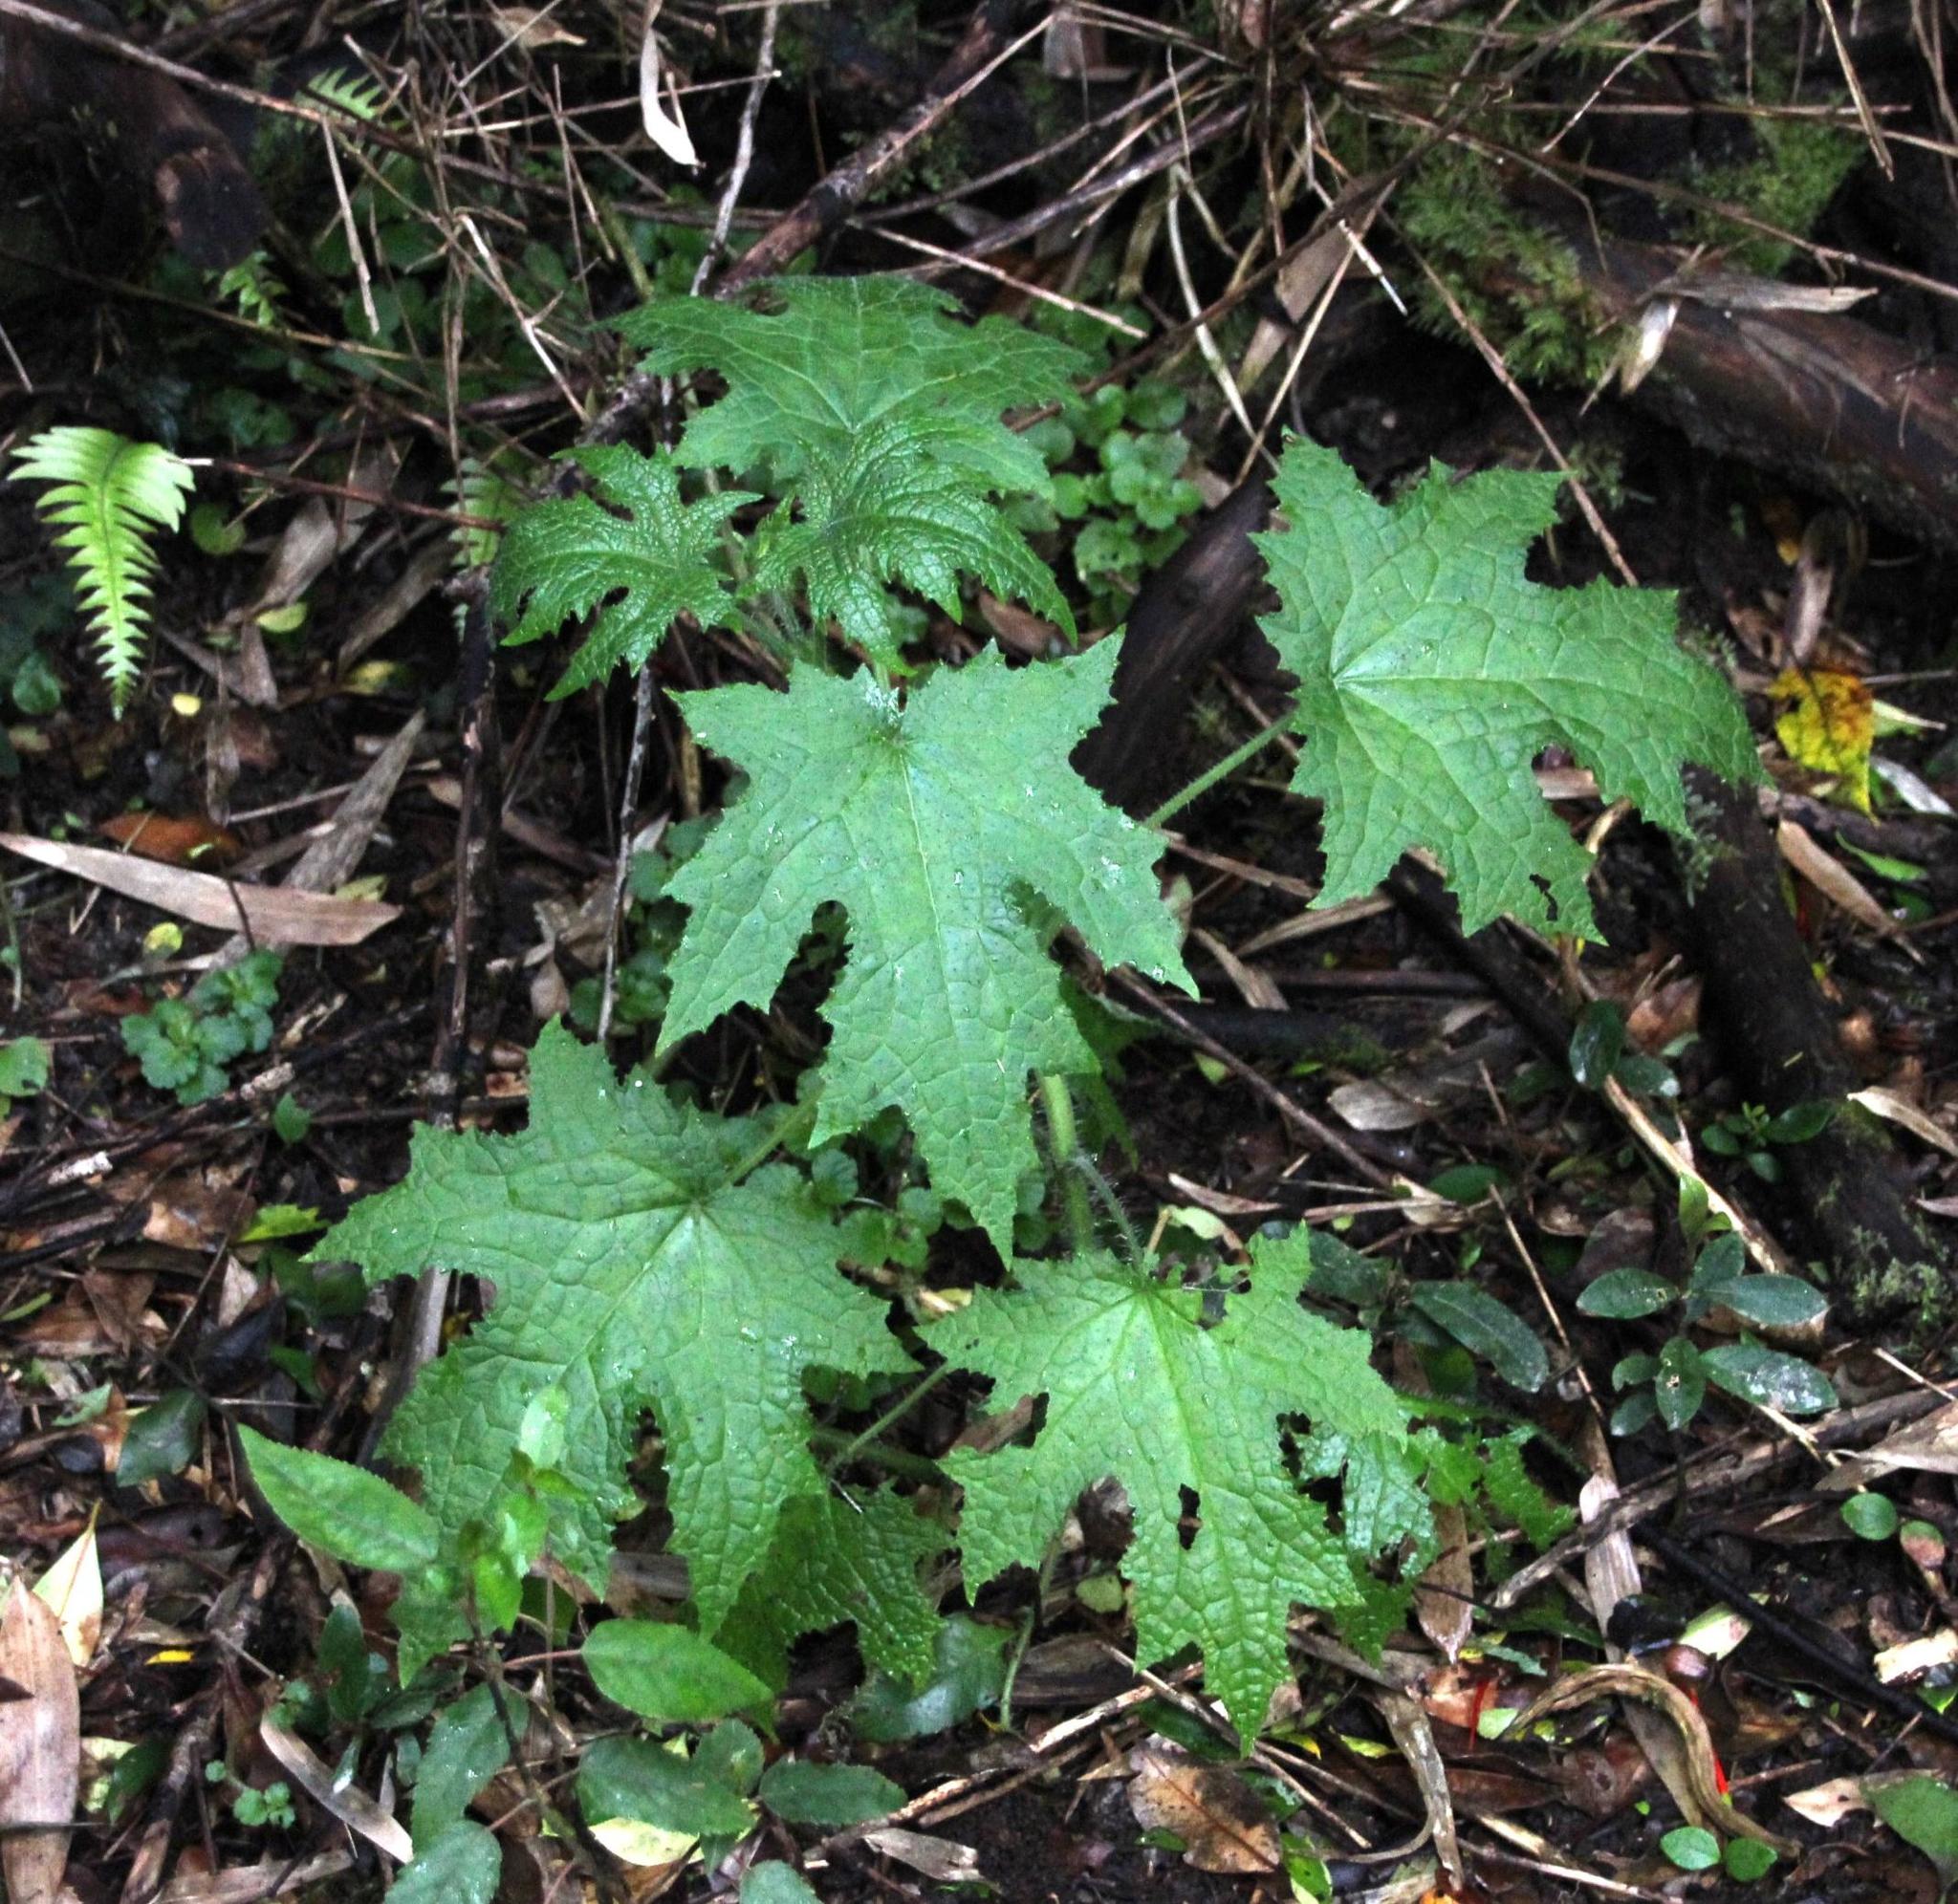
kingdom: Plantae
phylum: Tracheophyta
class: Magnoliopsida
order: Cornales
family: Loasaceae
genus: Loasa
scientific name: Loasa acerifolia
